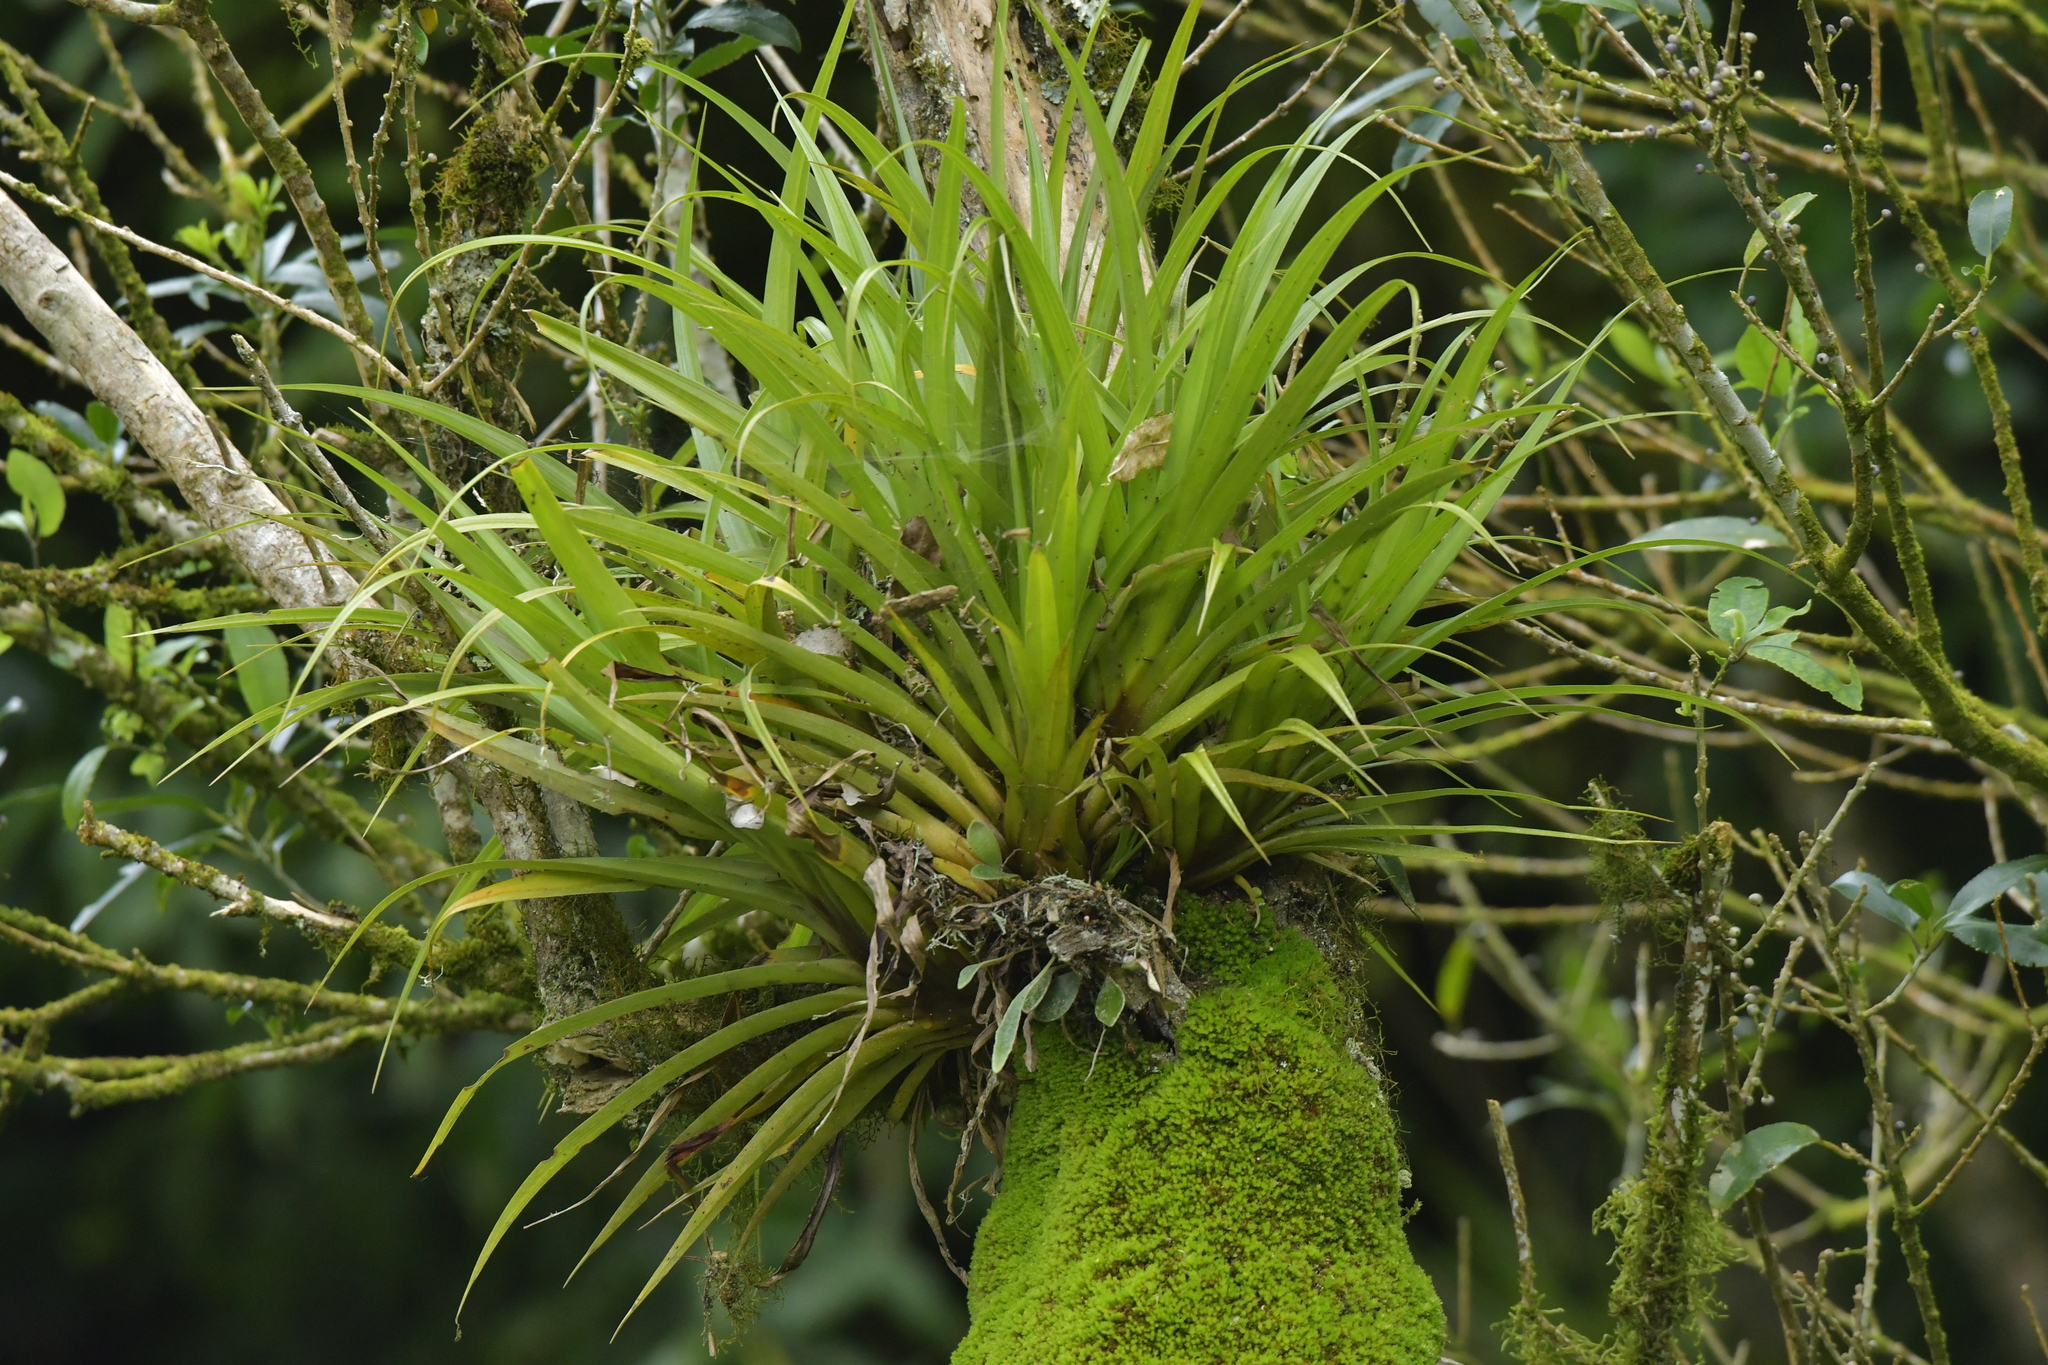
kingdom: Plantae
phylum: Tracheophyta
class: Liliopsida
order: Asparagales
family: Asteliaceae
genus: Astelia
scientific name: Astelia hastata
